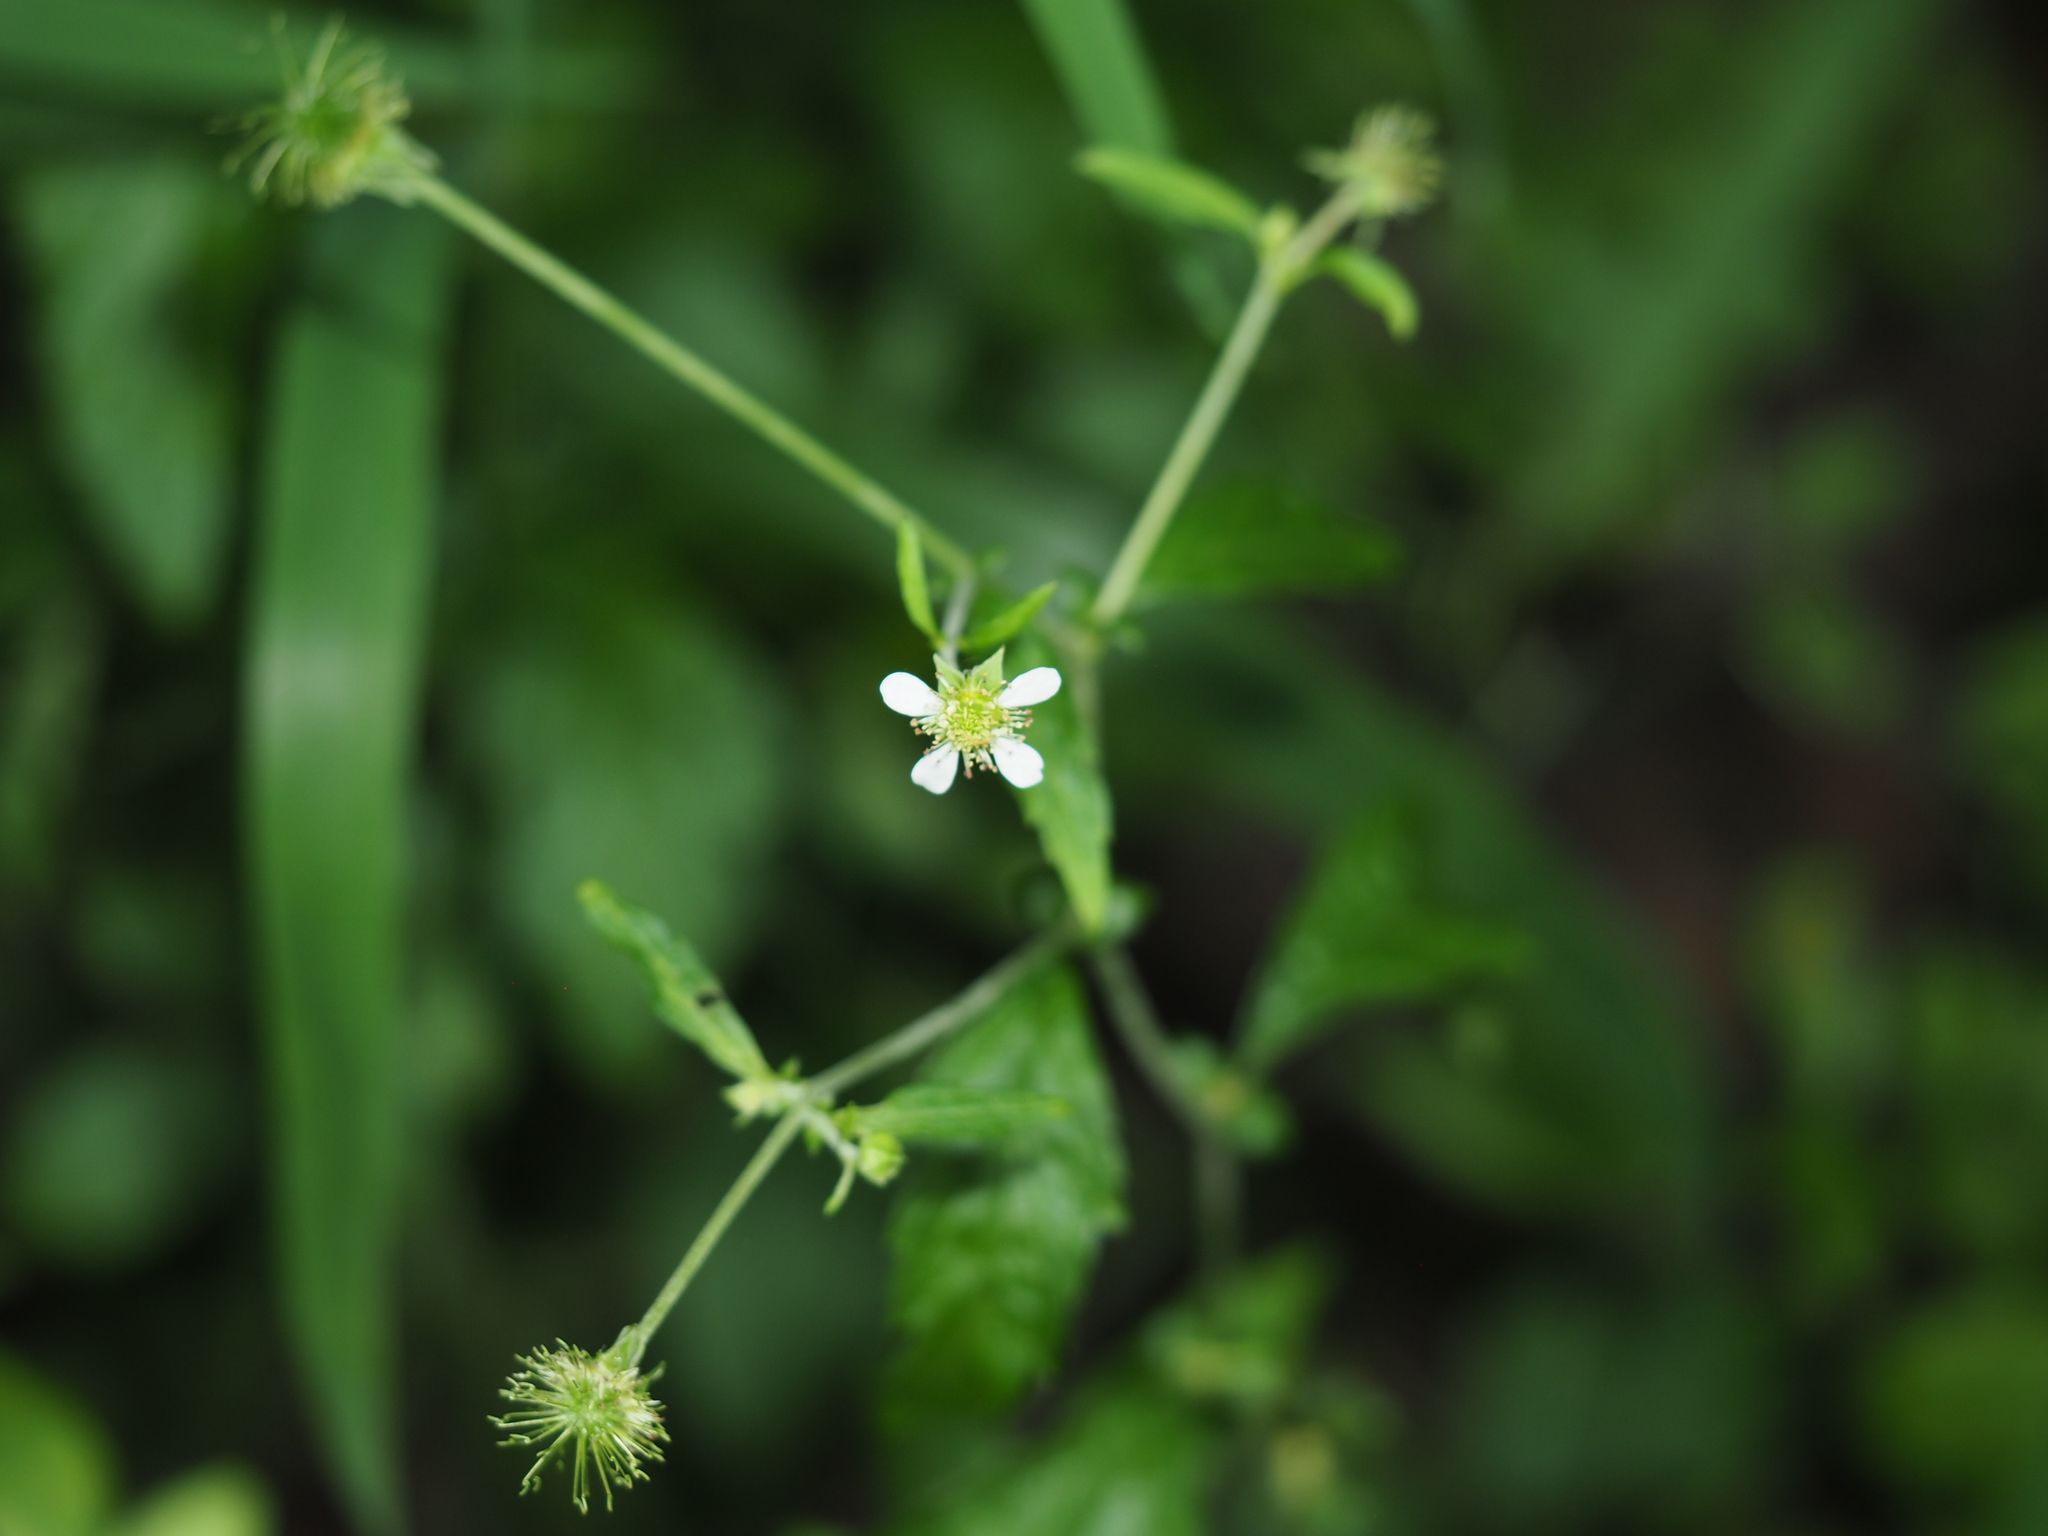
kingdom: Plantae
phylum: Tracheophyta
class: Magnoliopsida
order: Rosales
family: Rosaceae
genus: Geum
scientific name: Geum canadense
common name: White avens
